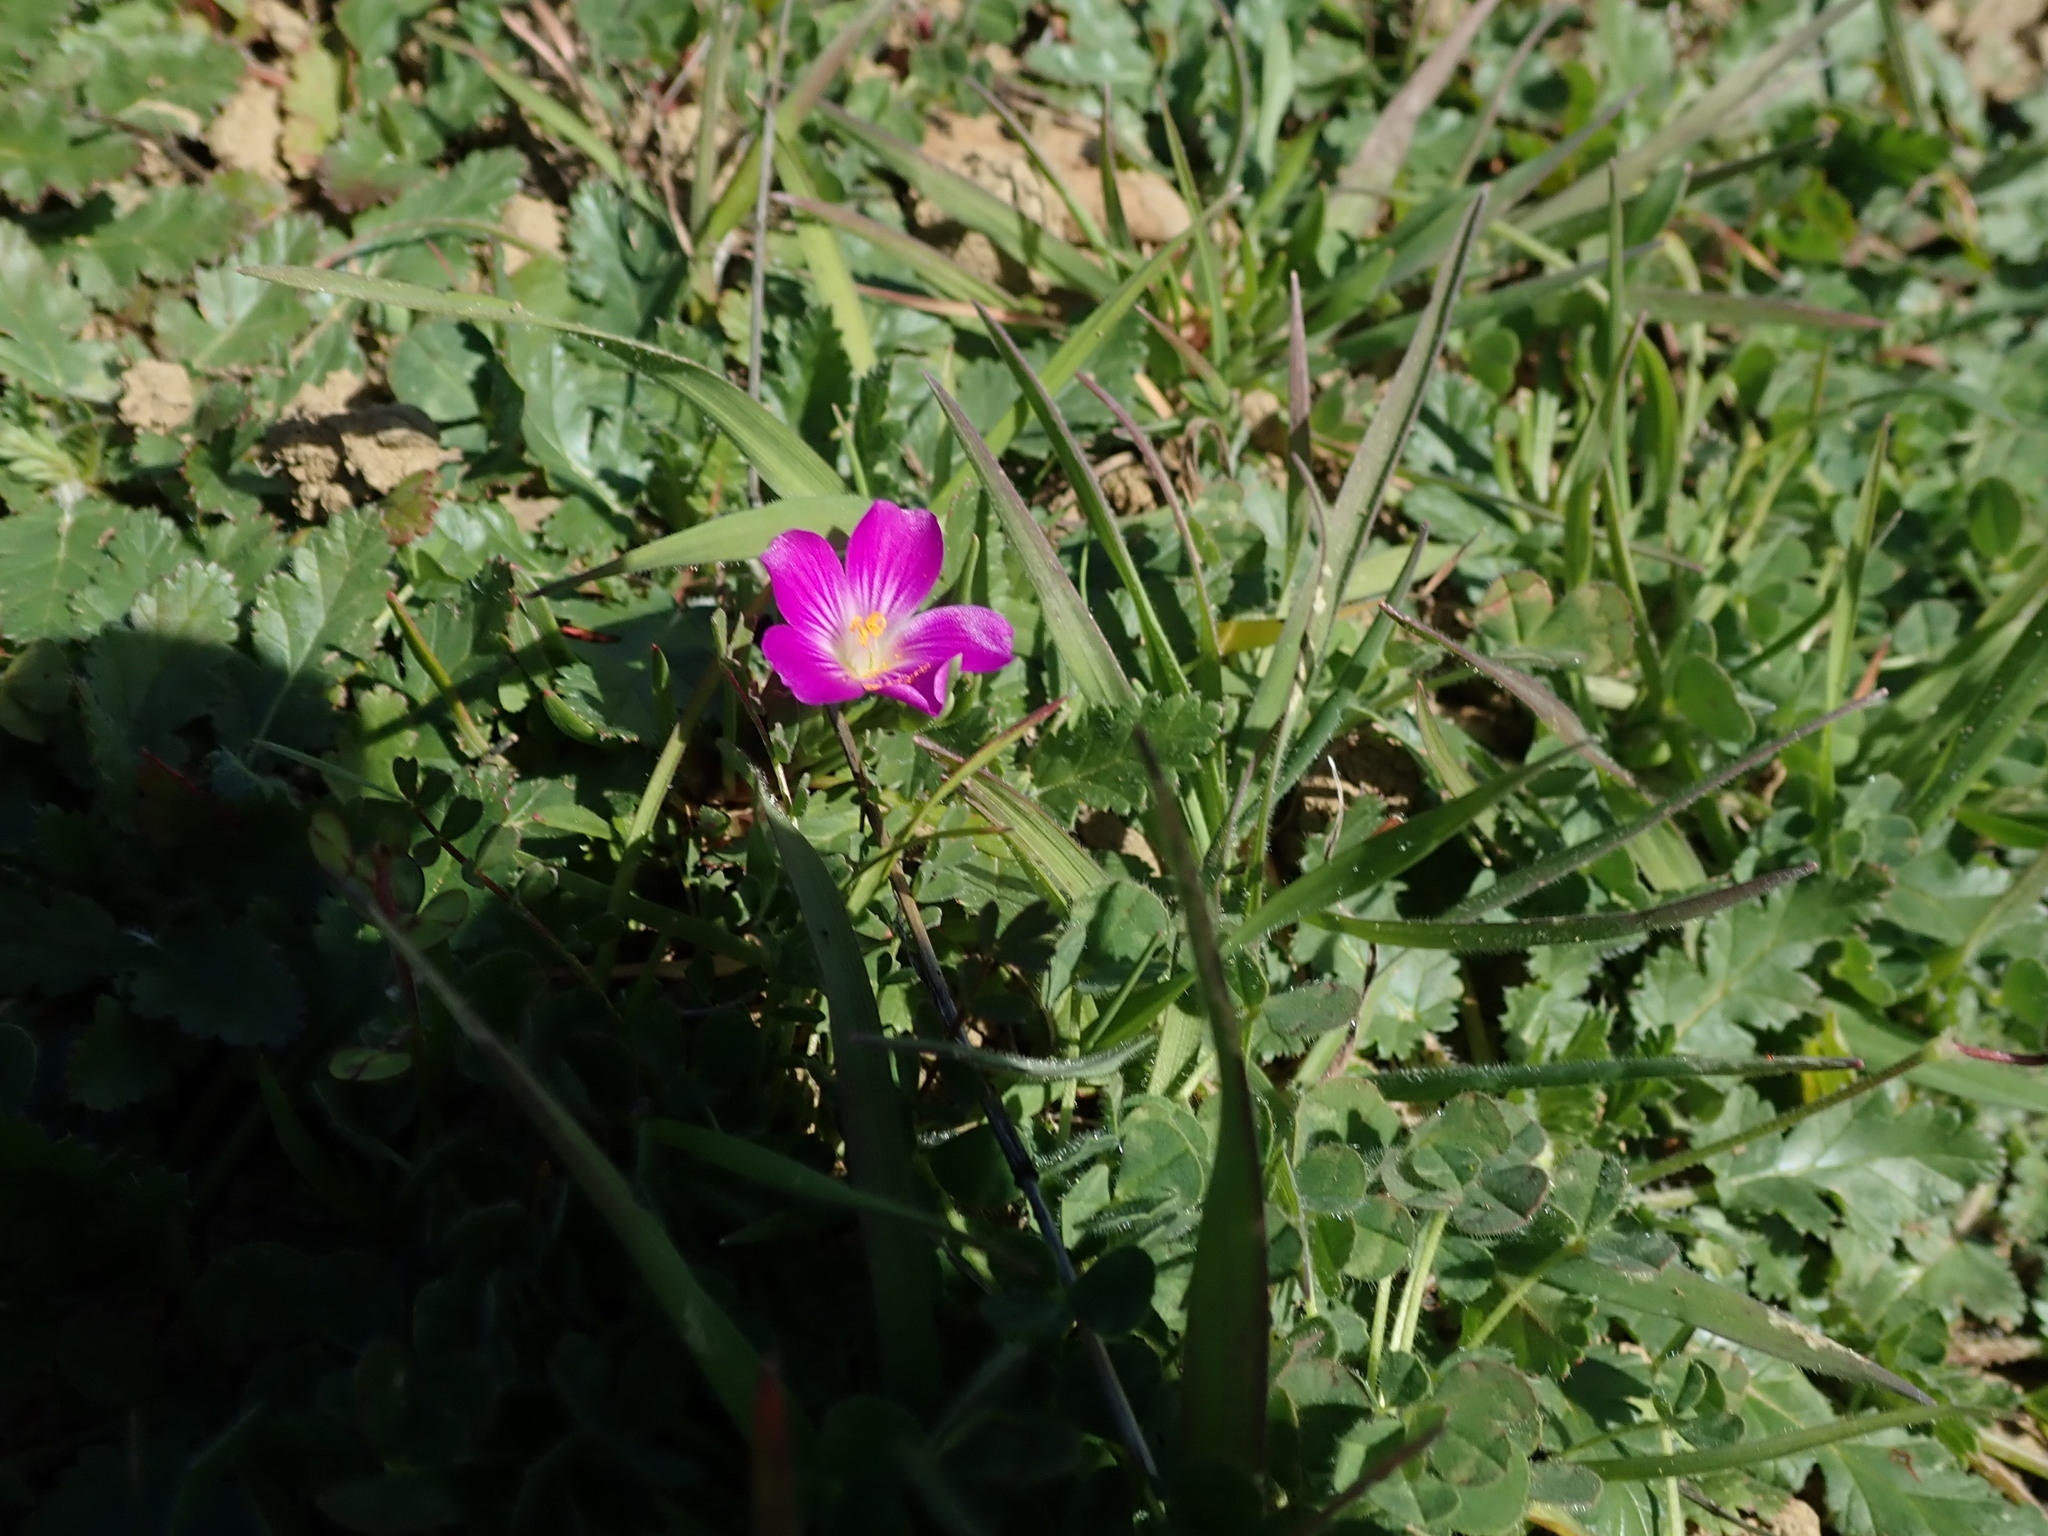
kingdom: Plantae
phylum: Tracheophyta
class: Magnoliopsida
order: Caryophyllales
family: Montiaceae
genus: Calandrinia
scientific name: Calandrinia menziesii
